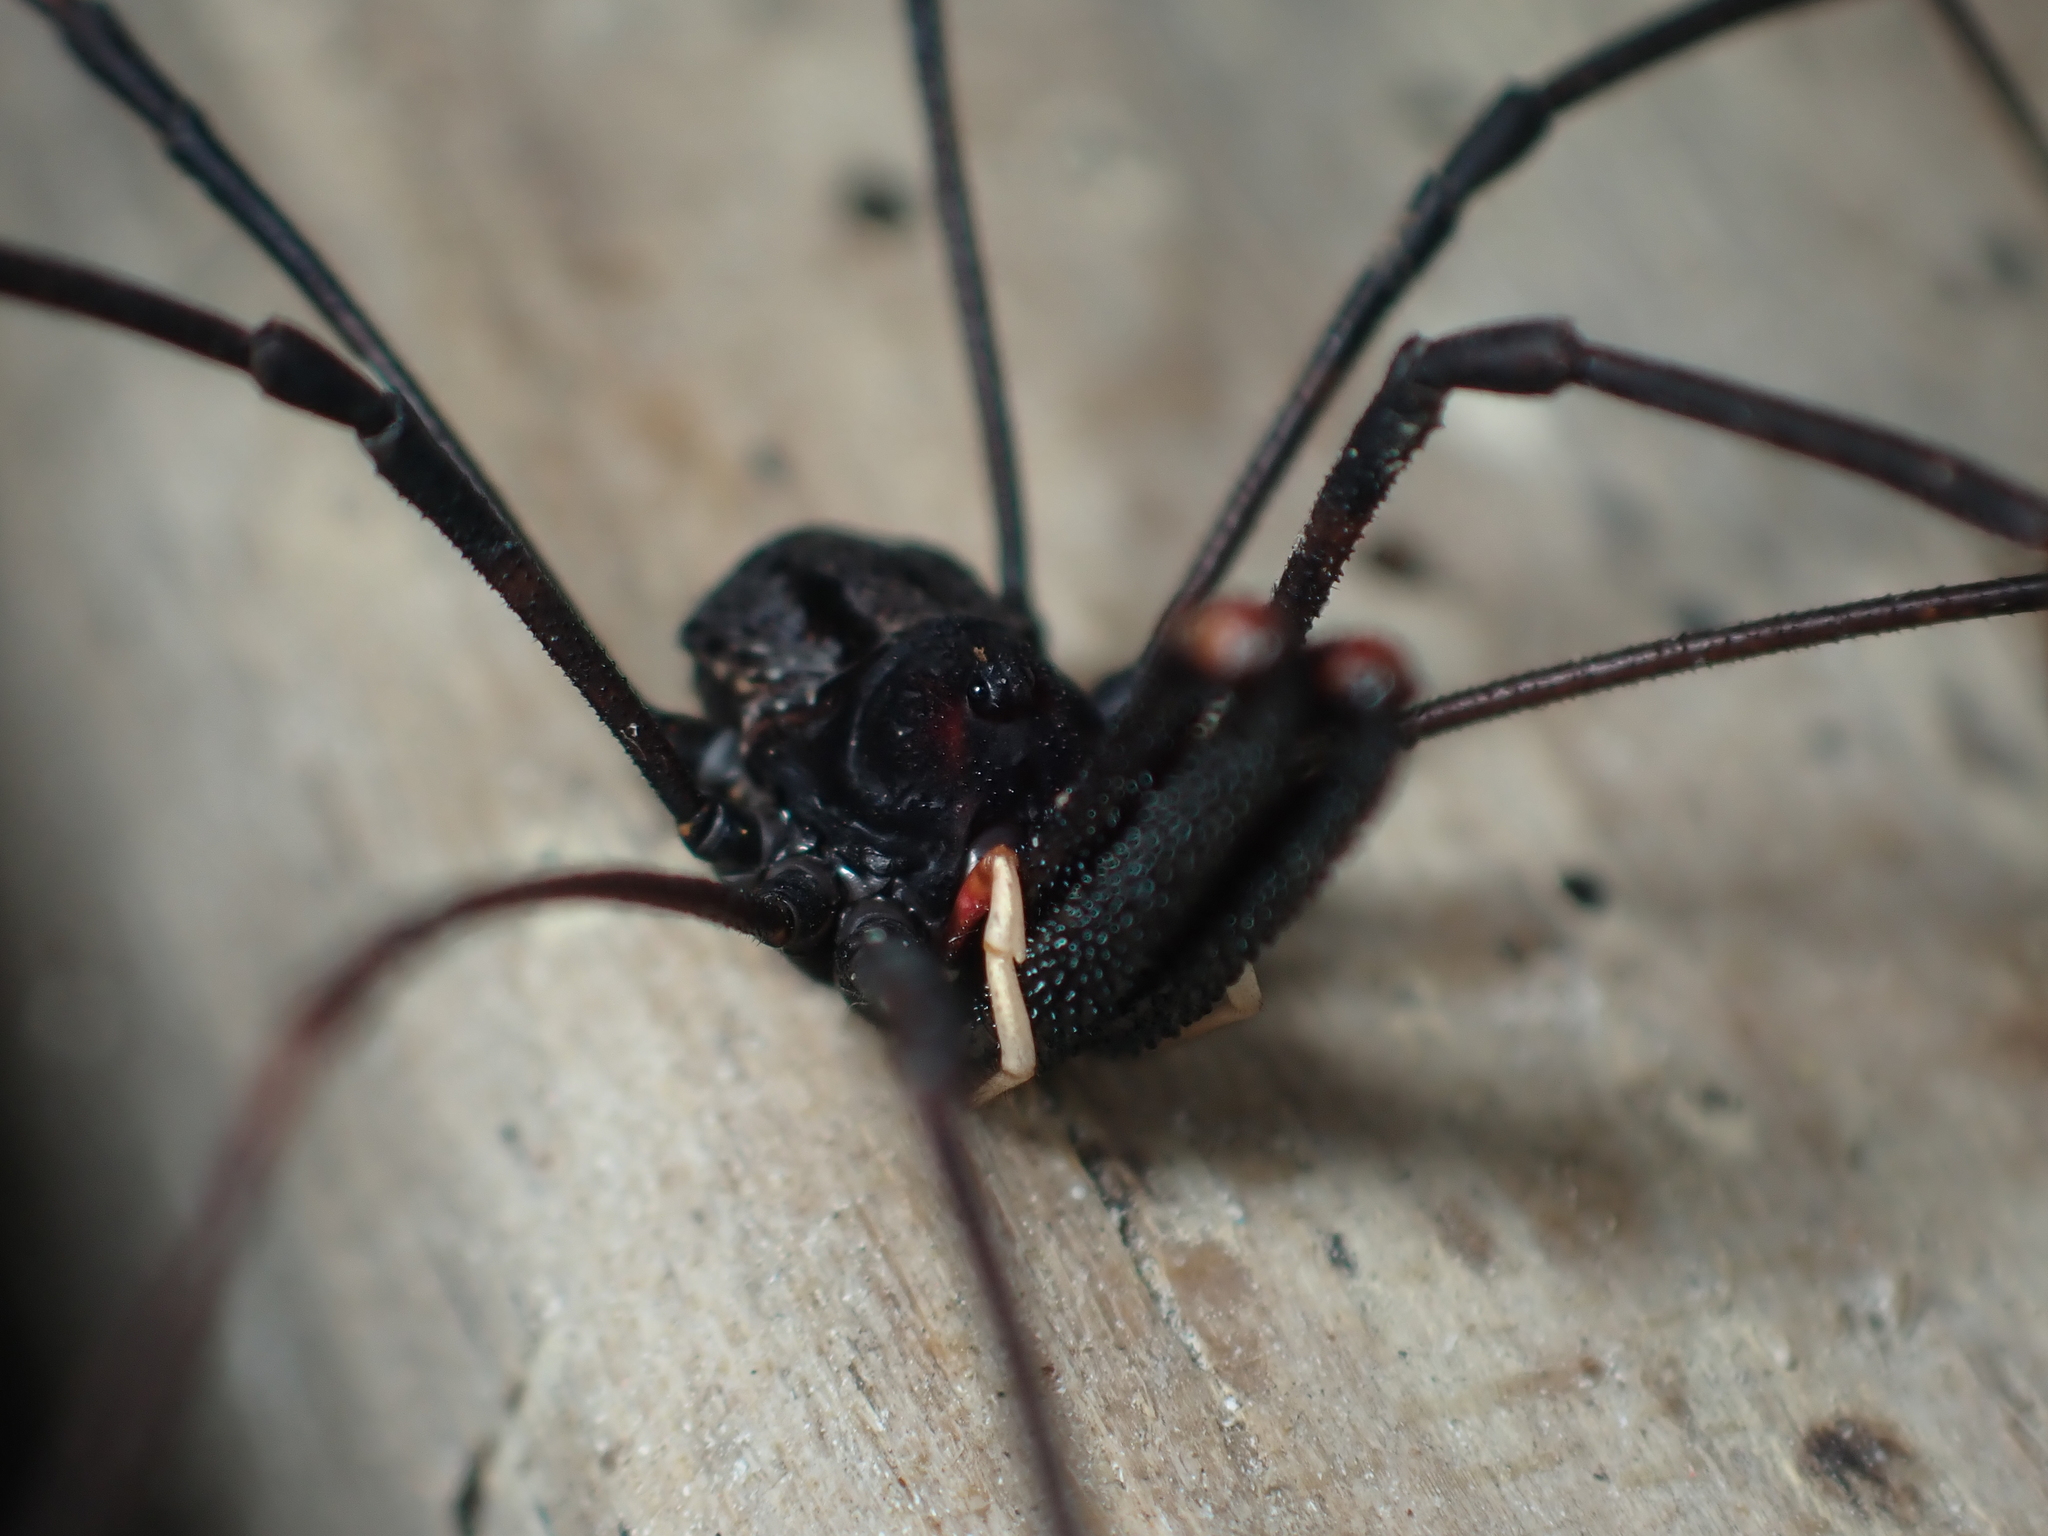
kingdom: Animalia
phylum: Arthropoda
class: Arachnida
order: Opiliones
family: Neopilionidae
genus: Forsteropsalis
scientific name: Forsteropsalis inconstans
